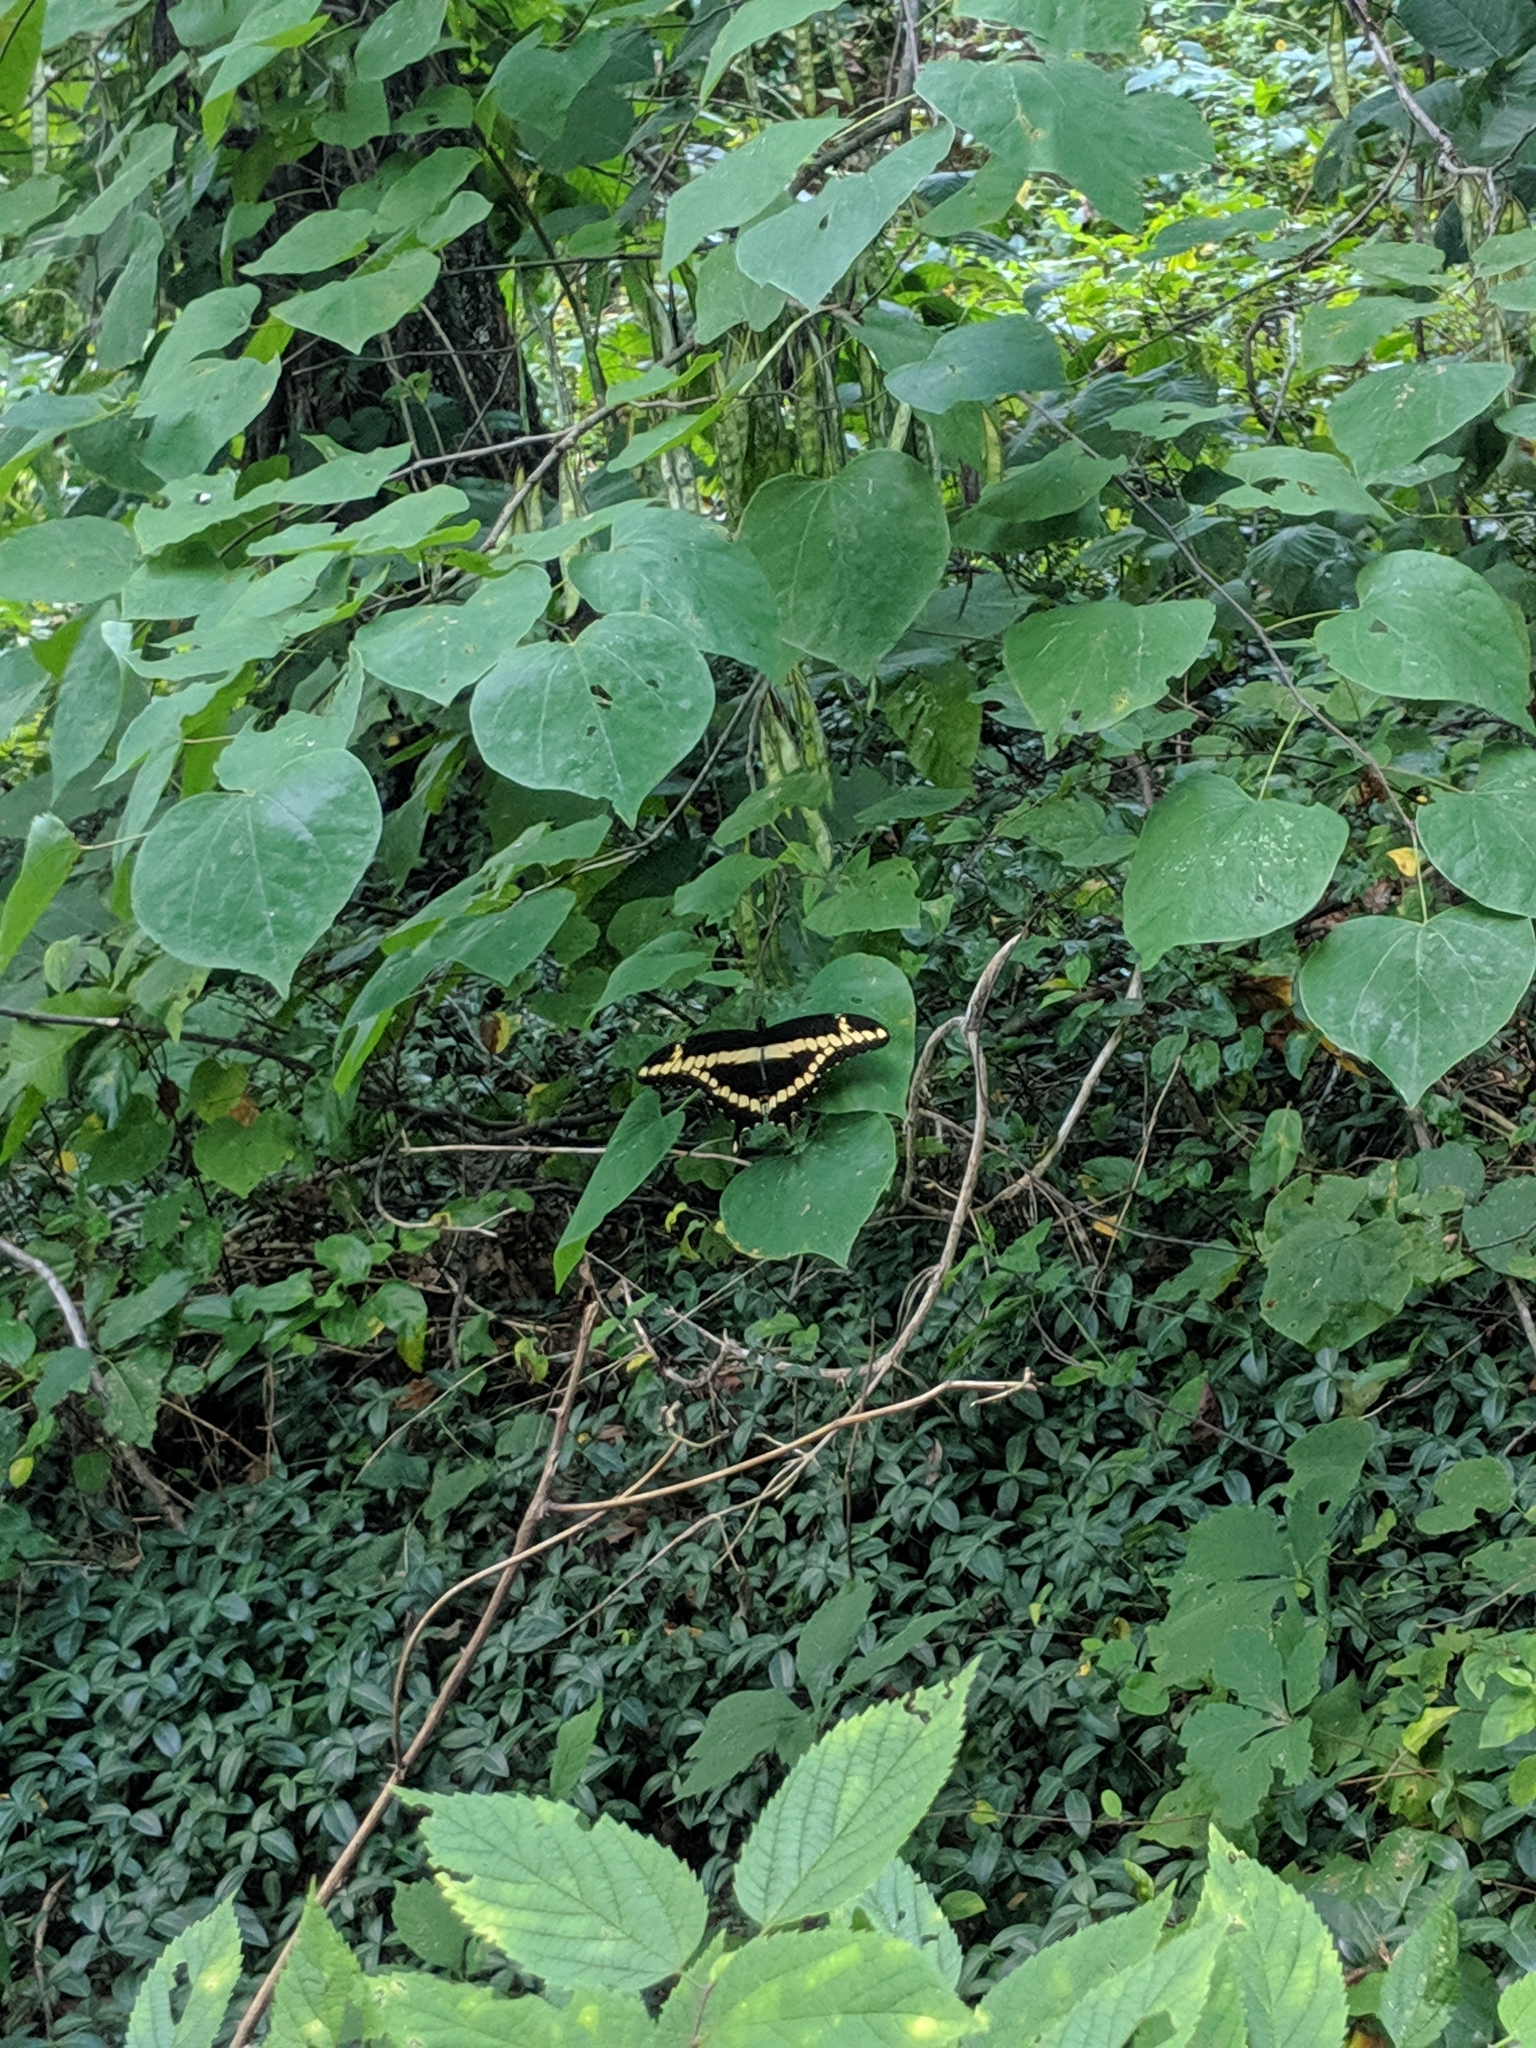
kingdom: Animalia
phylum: Arthropoda
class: Insecta
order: Lepidoptera
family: Papilionidae
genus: Papilio
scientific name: Papilio cresphontes
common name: Giant swallowtail
